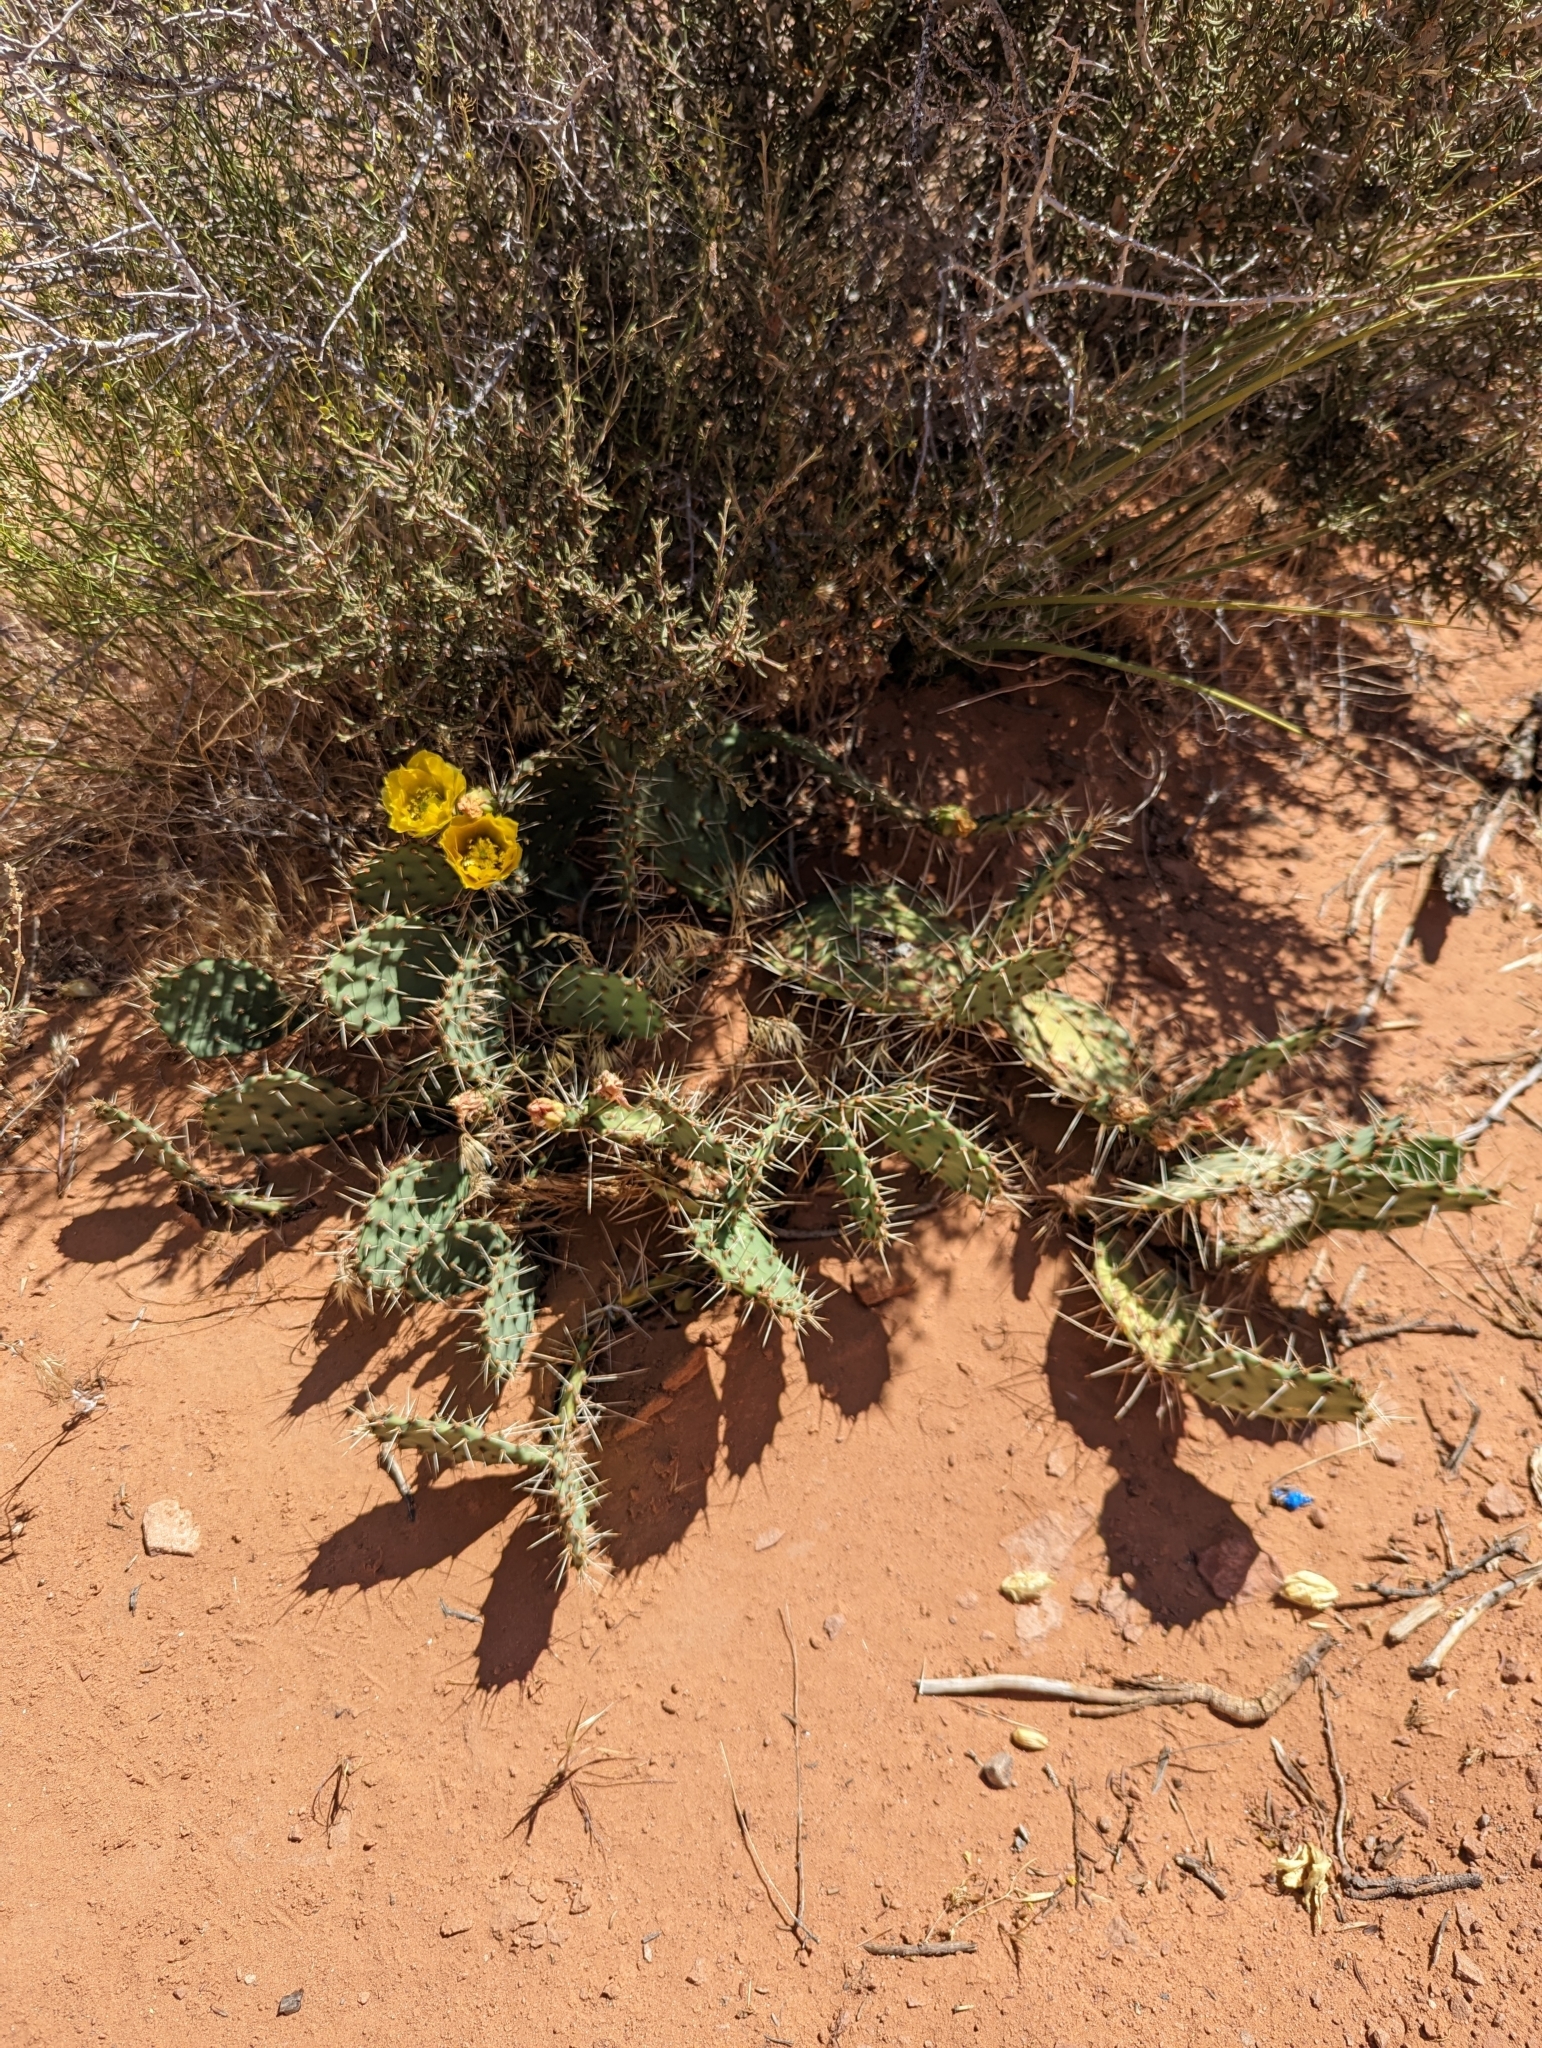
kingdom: Plantae
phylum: Tracheophyta
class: Magnoliopsida
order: Caryophyllales
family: Cactaceae
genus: Opuntia
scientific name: Opuntia phaeacantha
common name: New mexico prickly-pear
